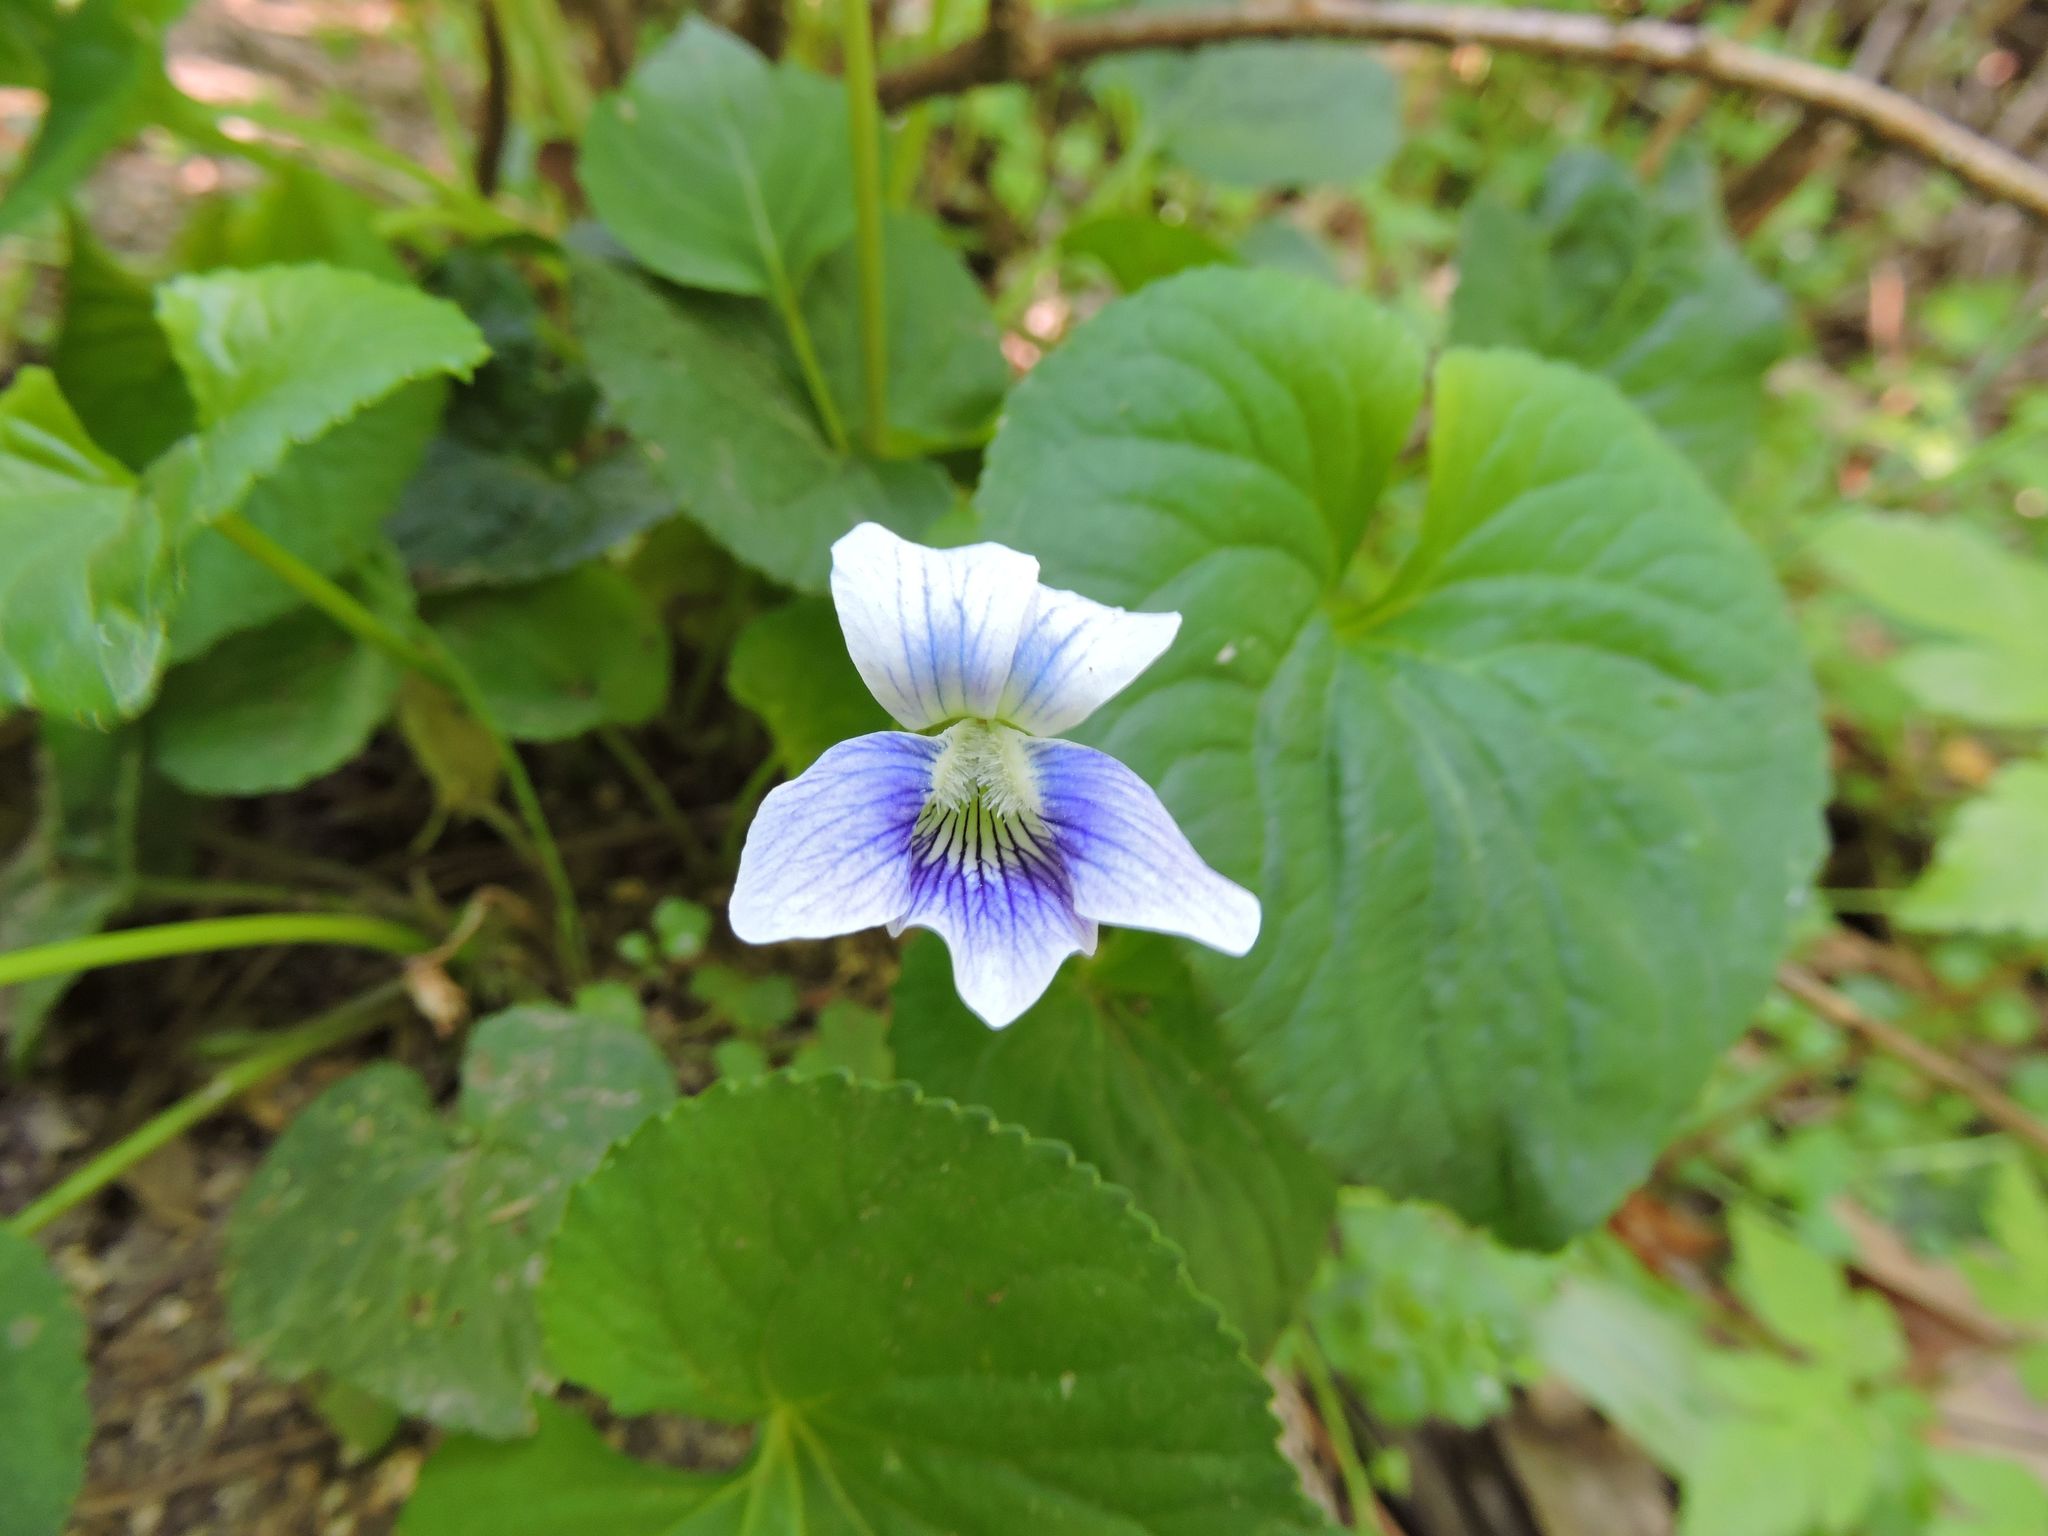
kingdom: Plantae
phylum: Tracheophyta
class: Magnoliopsida
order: Malpighiales
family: Violaceae
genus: Viola
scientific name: Viola sororia
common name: Dooryard violet
